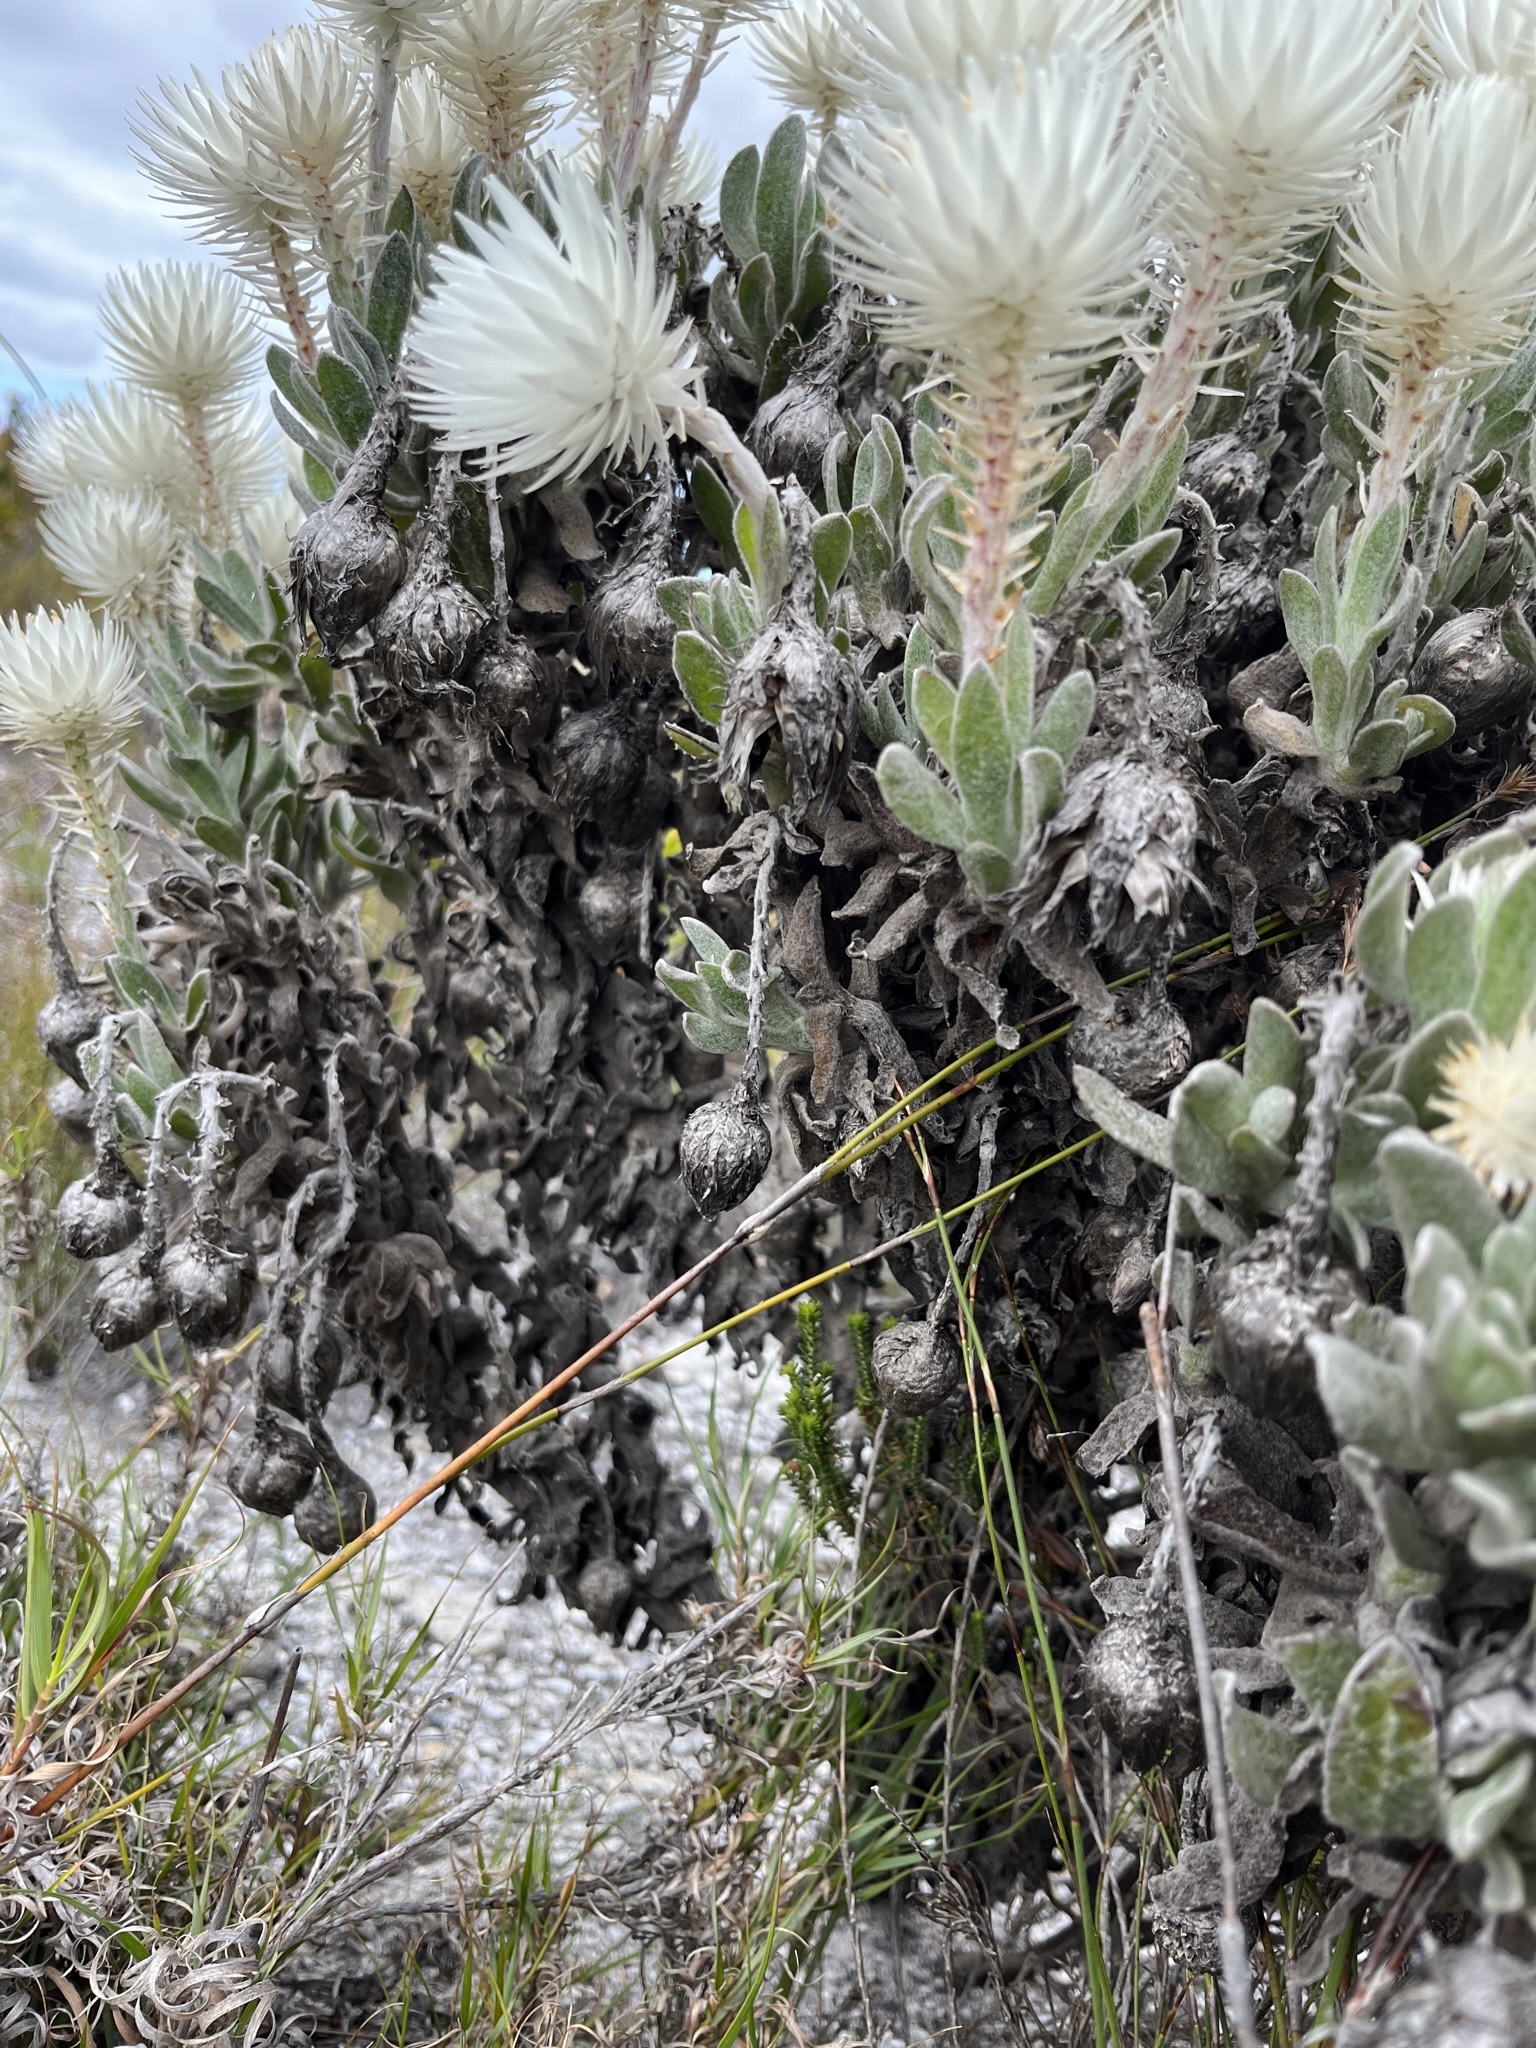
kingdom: Plantae
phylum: Tracheophyta
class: Magnoliopsida
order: Asterales
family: Asteraceae
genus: Syncarpha
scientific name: Syncarpha vestita
